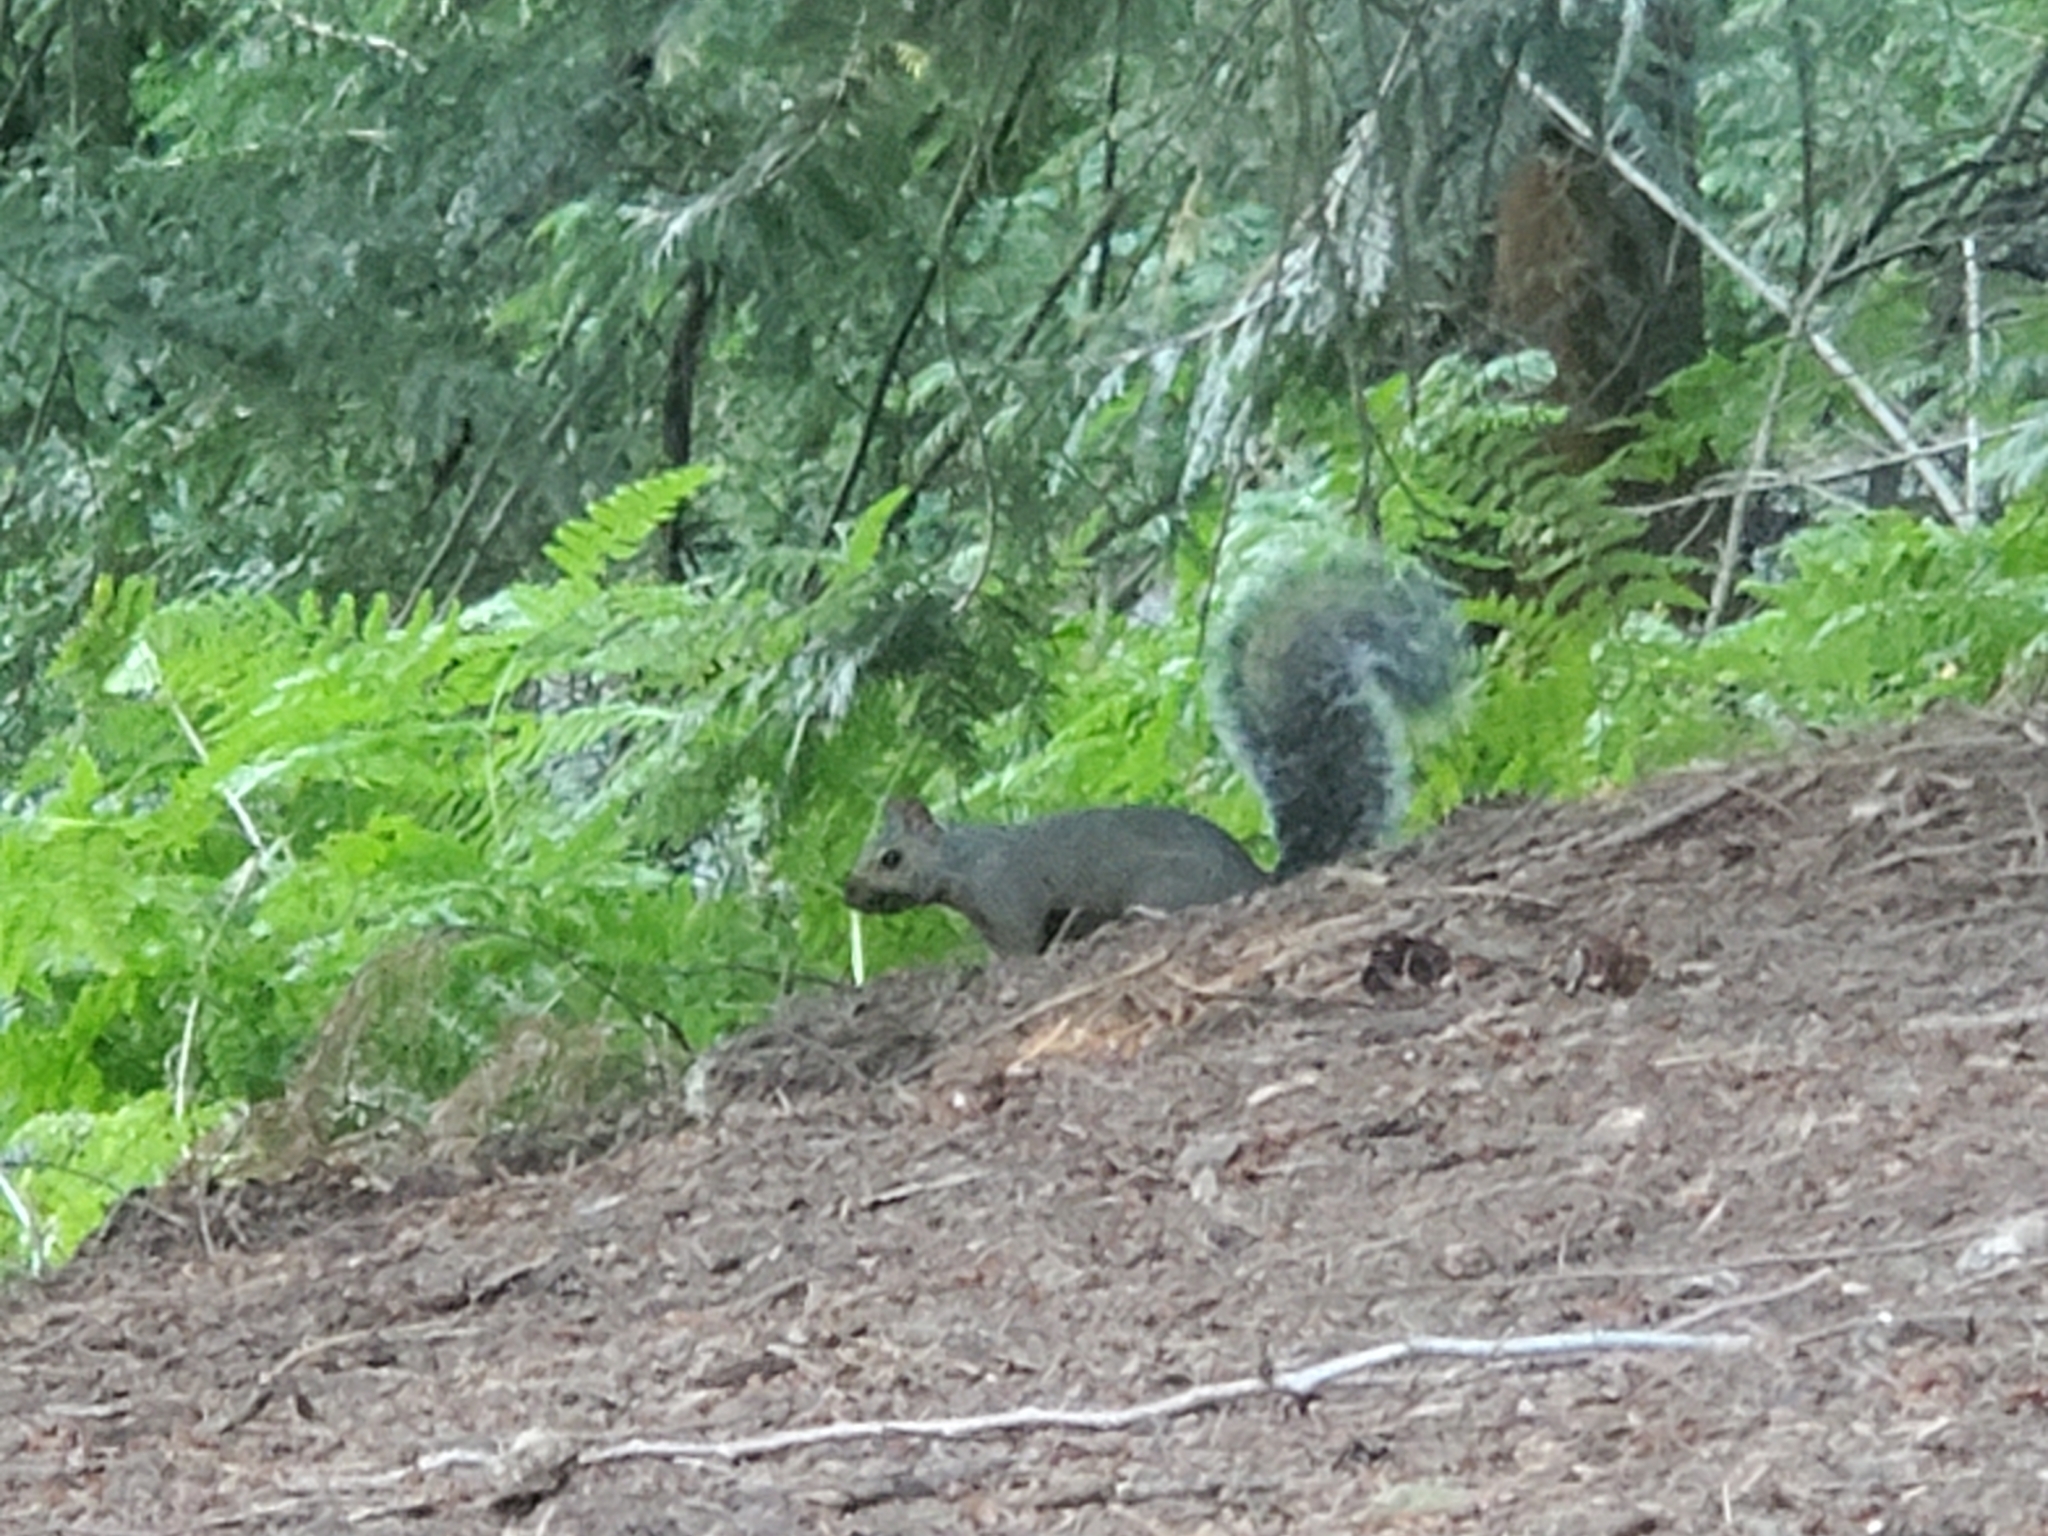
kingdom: Animalia
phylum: Chordata
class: Mammalia
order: Rodentia
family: Sciuridae
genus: Sciurus
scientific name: Sciurus carolinensis
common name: Eastern gray squirrel
